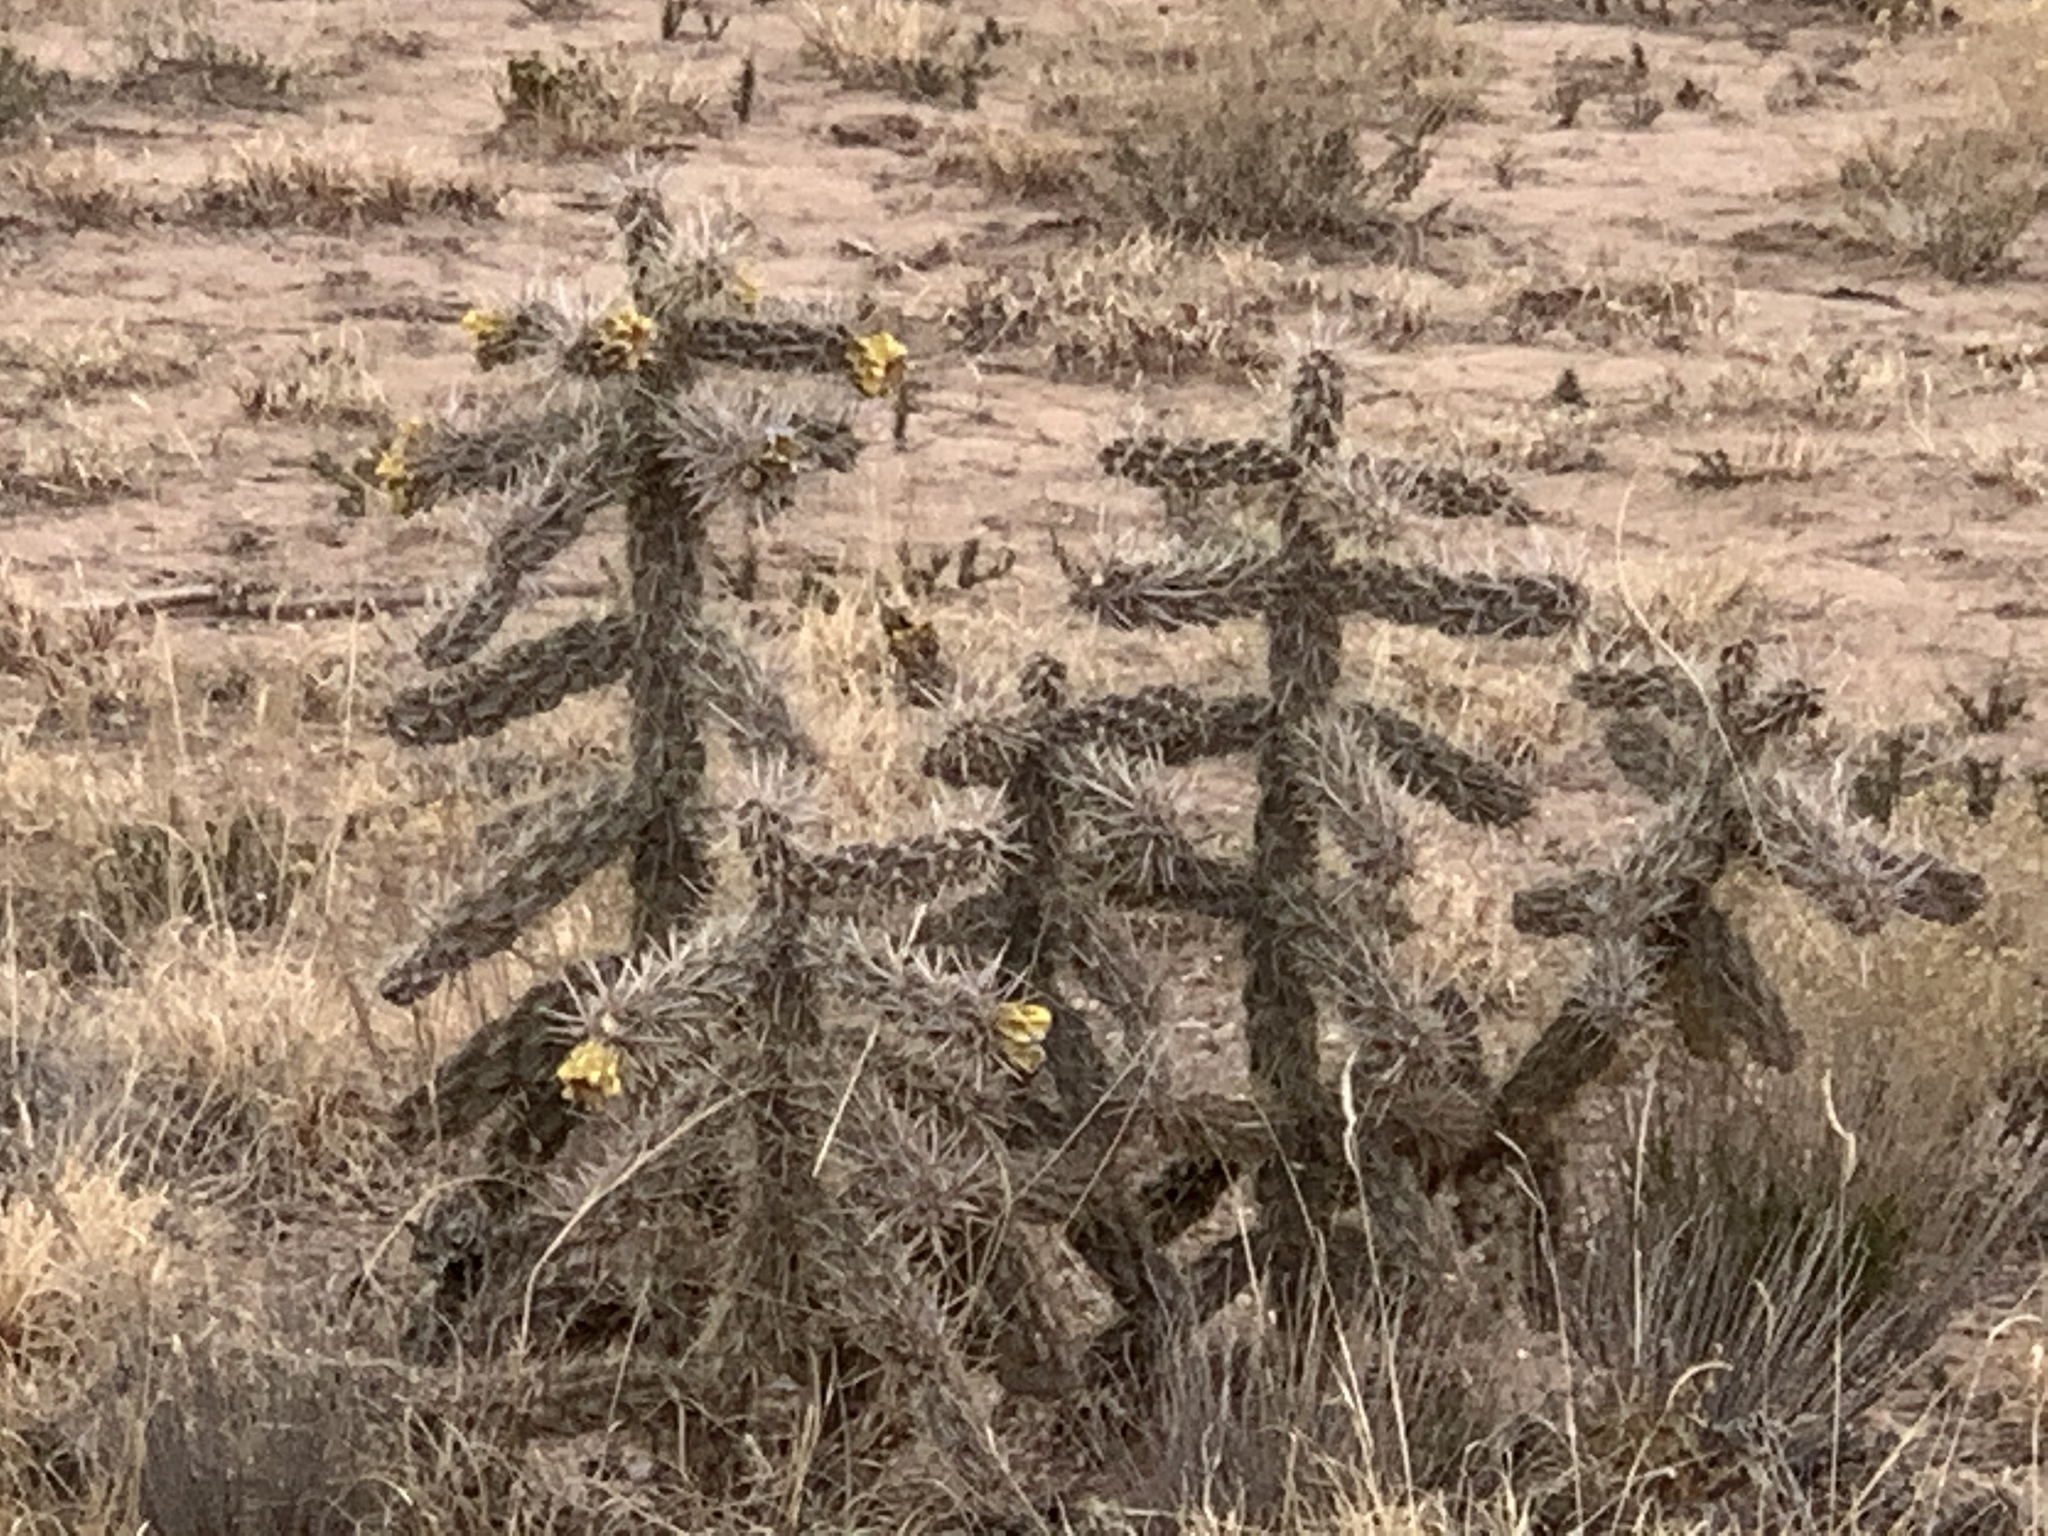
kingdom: Plantae
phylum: Tracheophyta
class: Magnoliopsida
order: Caryophyllales
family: Cactaceae
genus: Cylindropuntia
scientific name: Cylindropuntia imbricata
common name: Candelabrum cactus
